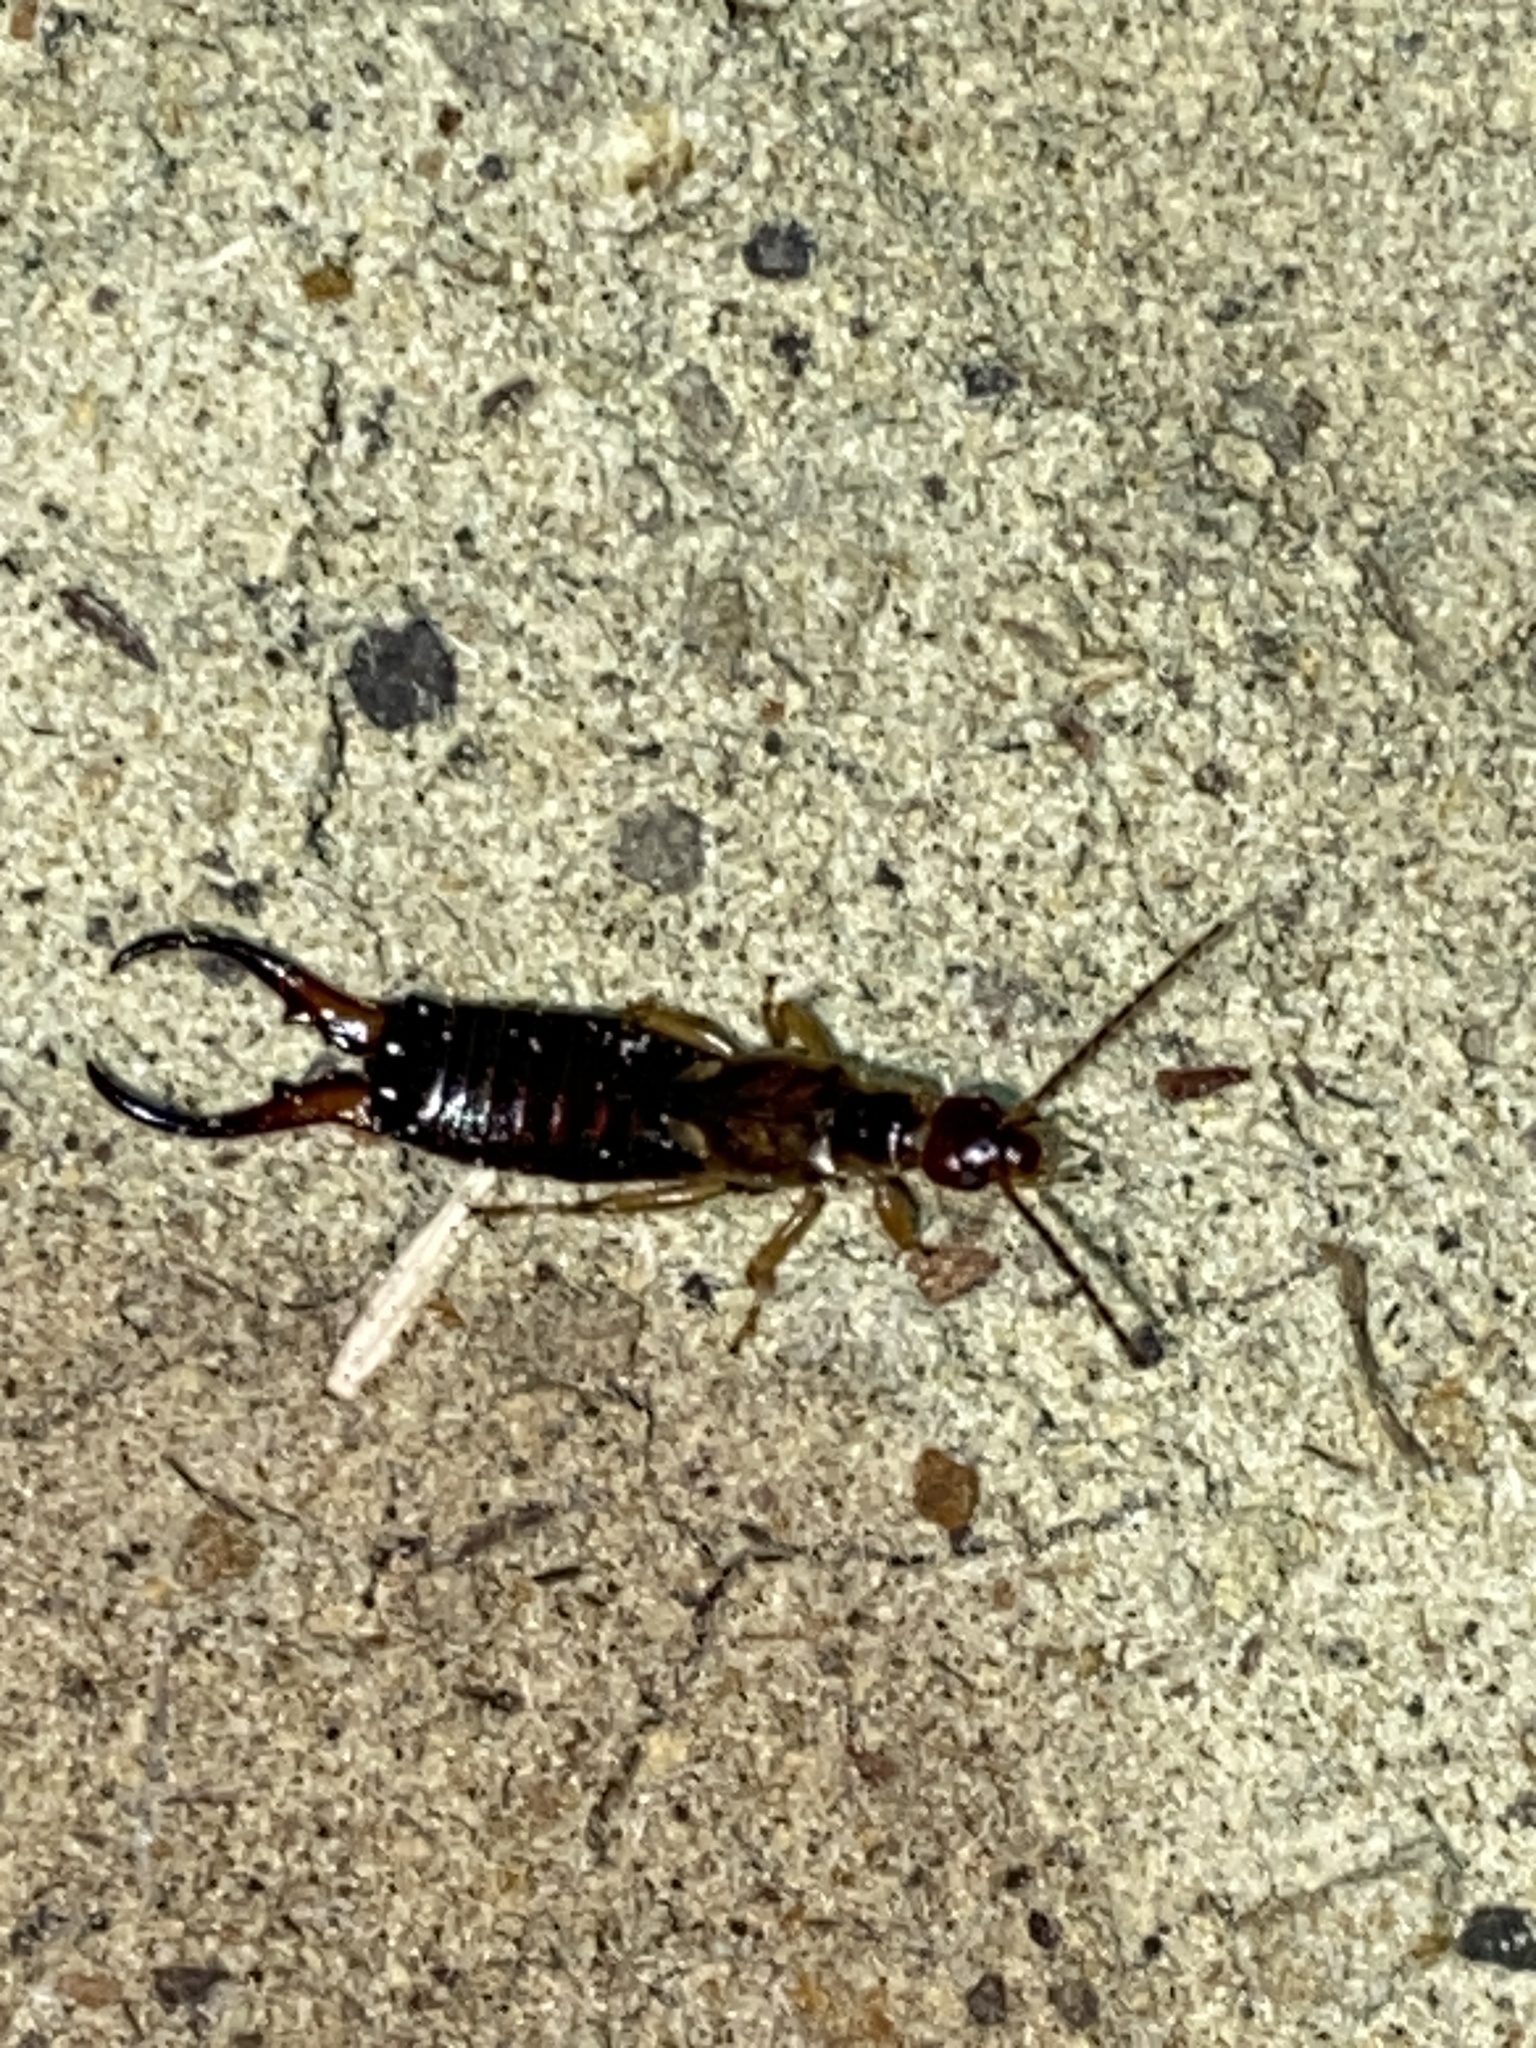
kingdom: Animalia
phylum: Arthropoda
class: Insecta
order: Dermaptera
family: Forficulidae
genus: Forficula
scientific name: Forficula dentata
